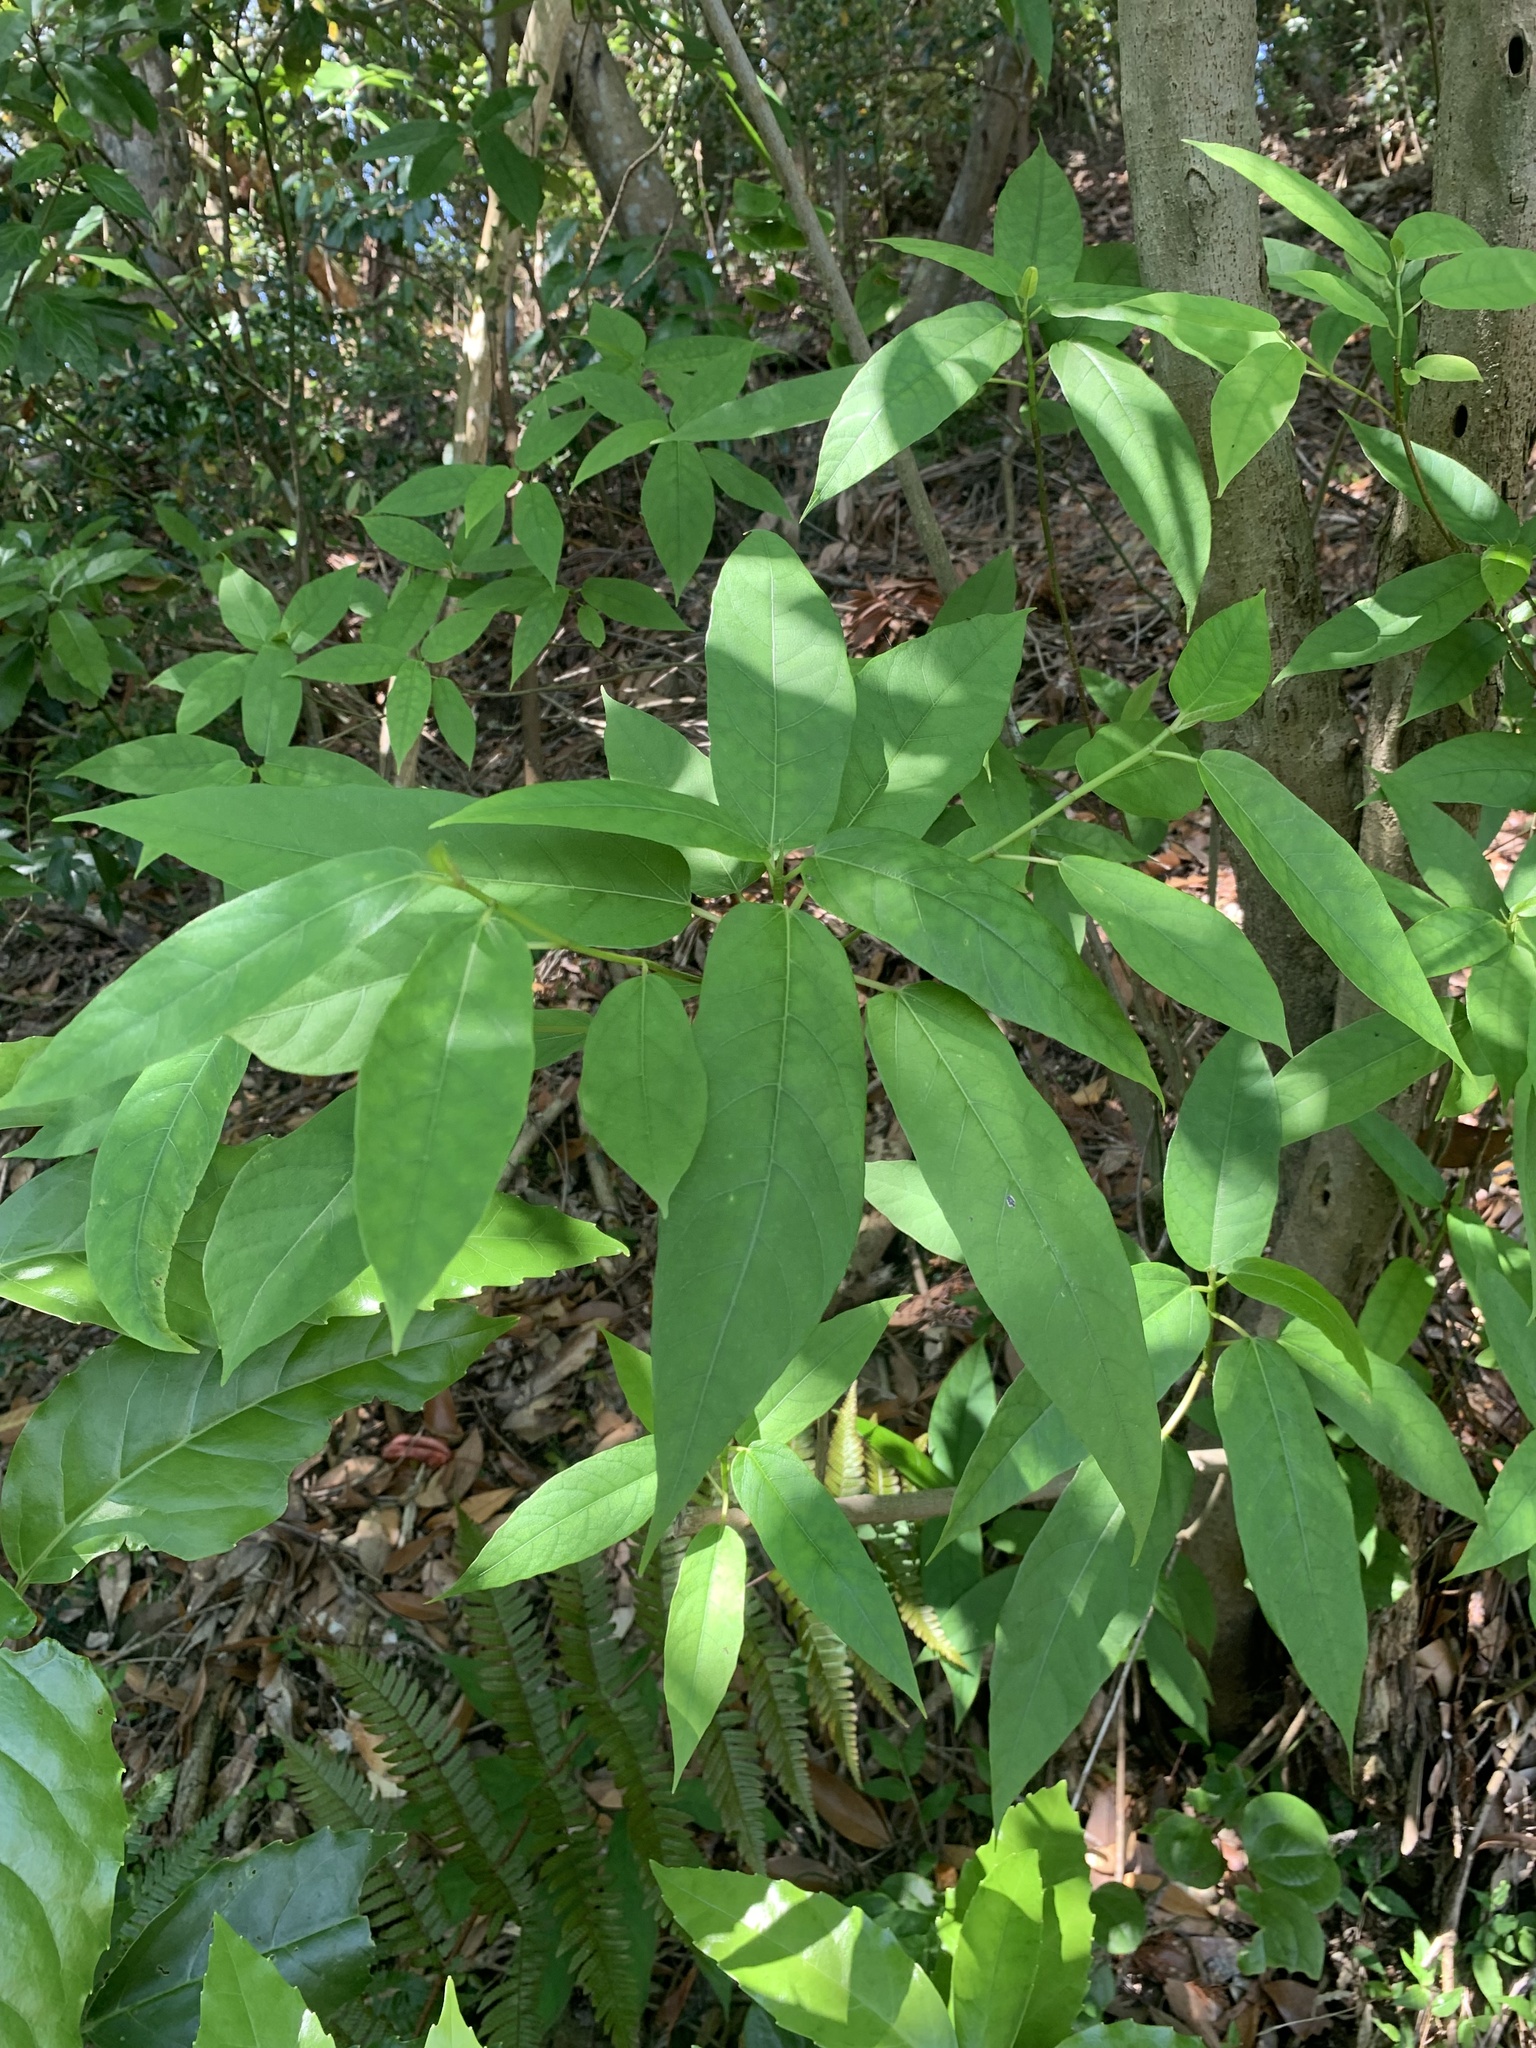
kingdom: Plantae
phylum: Tracheophyta
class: Magnoliopsida
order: Rosales
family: Moraceae
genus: Ficus
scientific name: Ficus erecta
